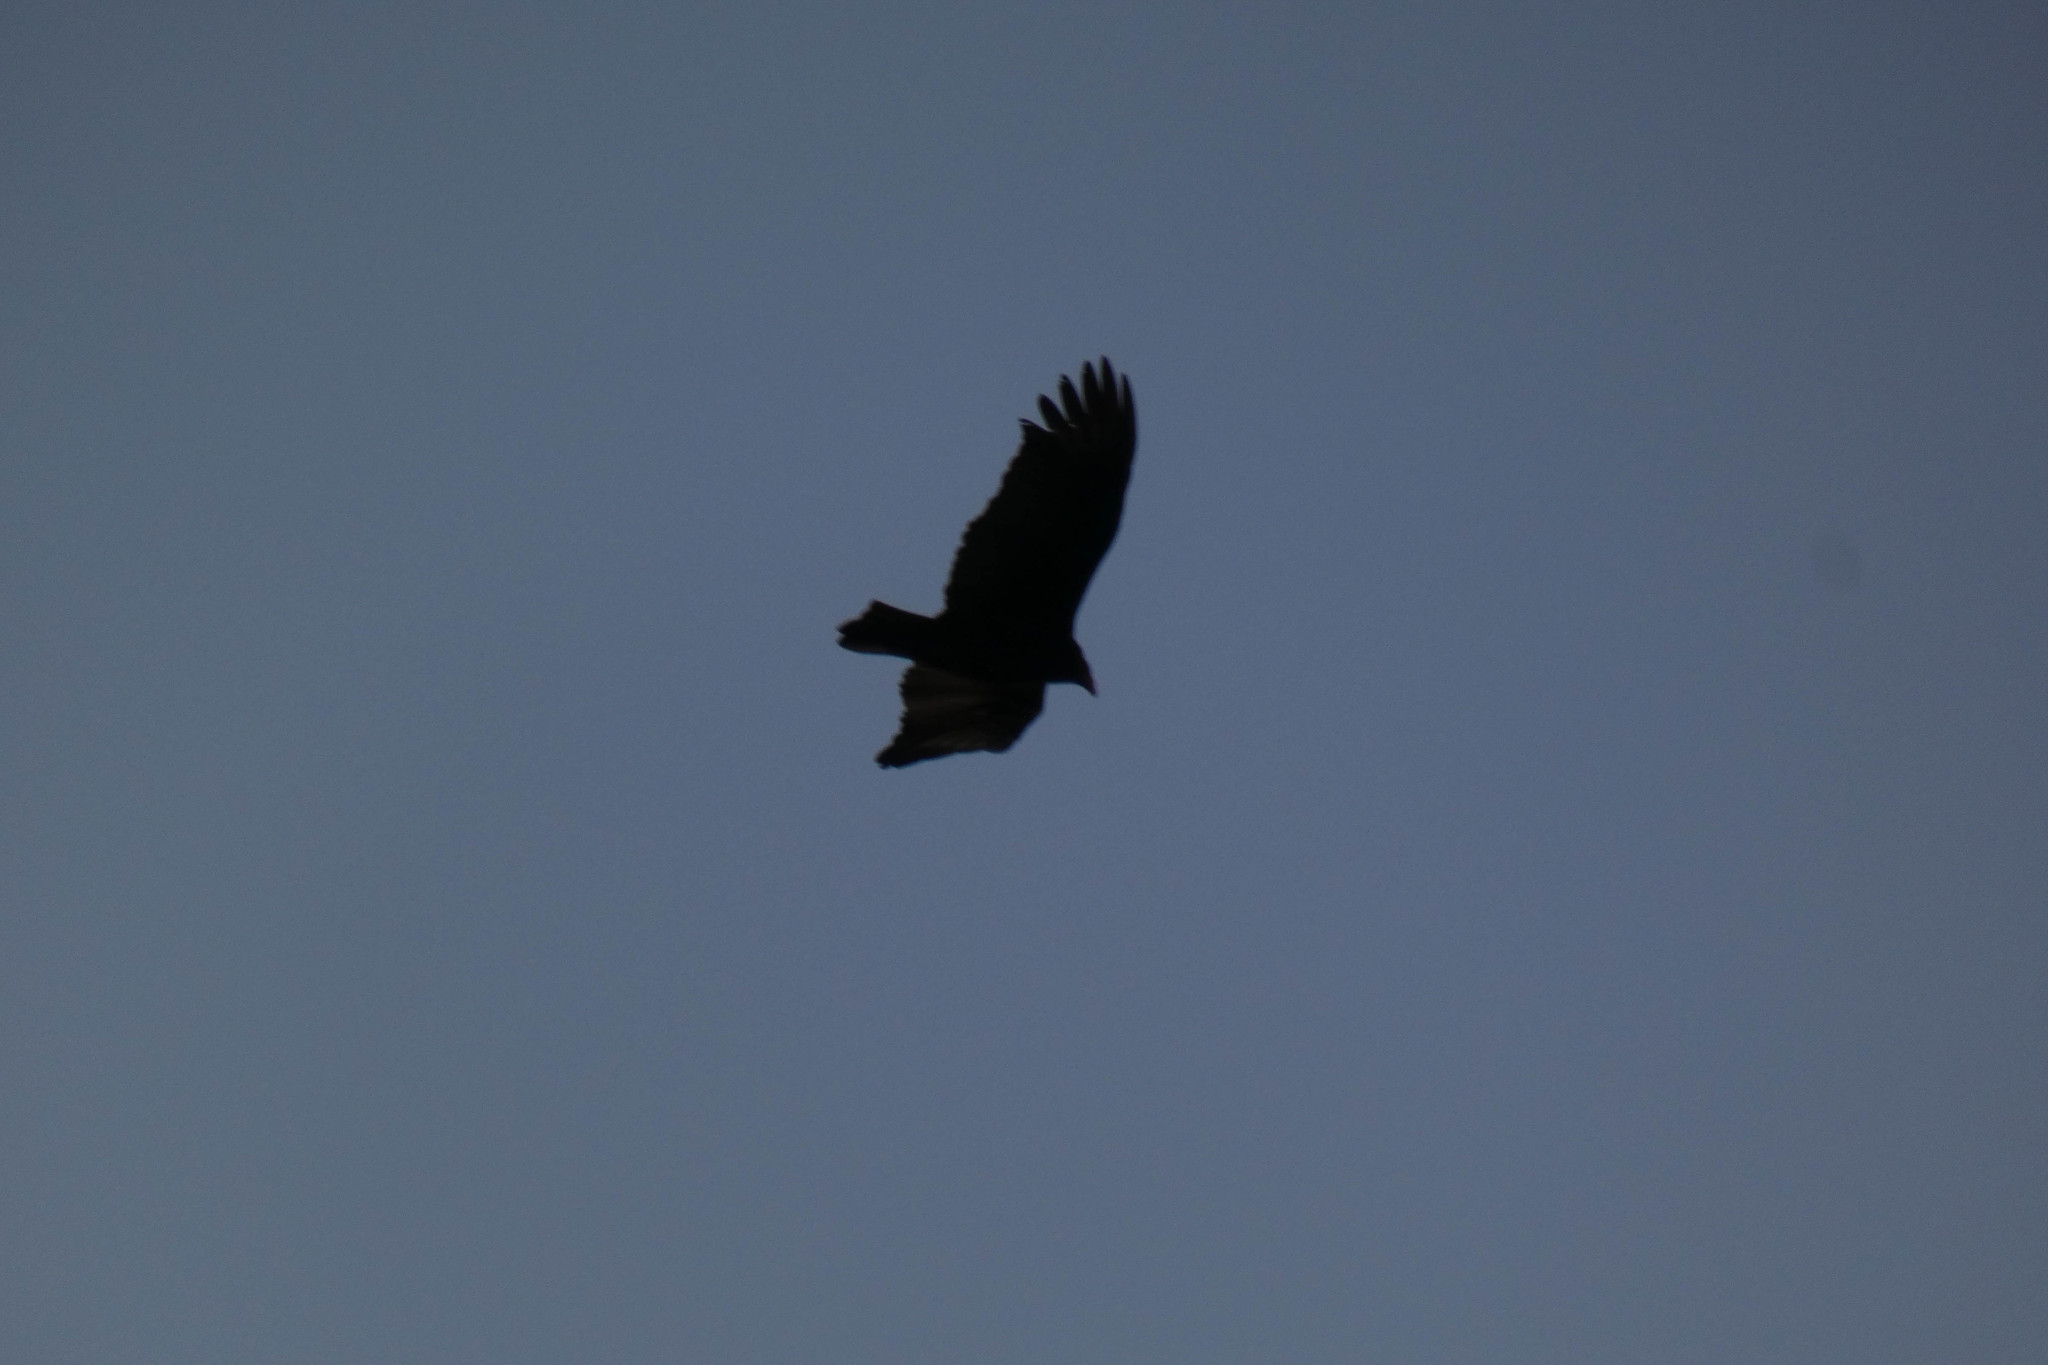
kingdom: Animalia
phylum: Chordata
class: Aves
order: Accipitriformes
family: Cathartidae
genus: Cathartes
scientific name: Cathartes aura
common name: Turkey vulture
